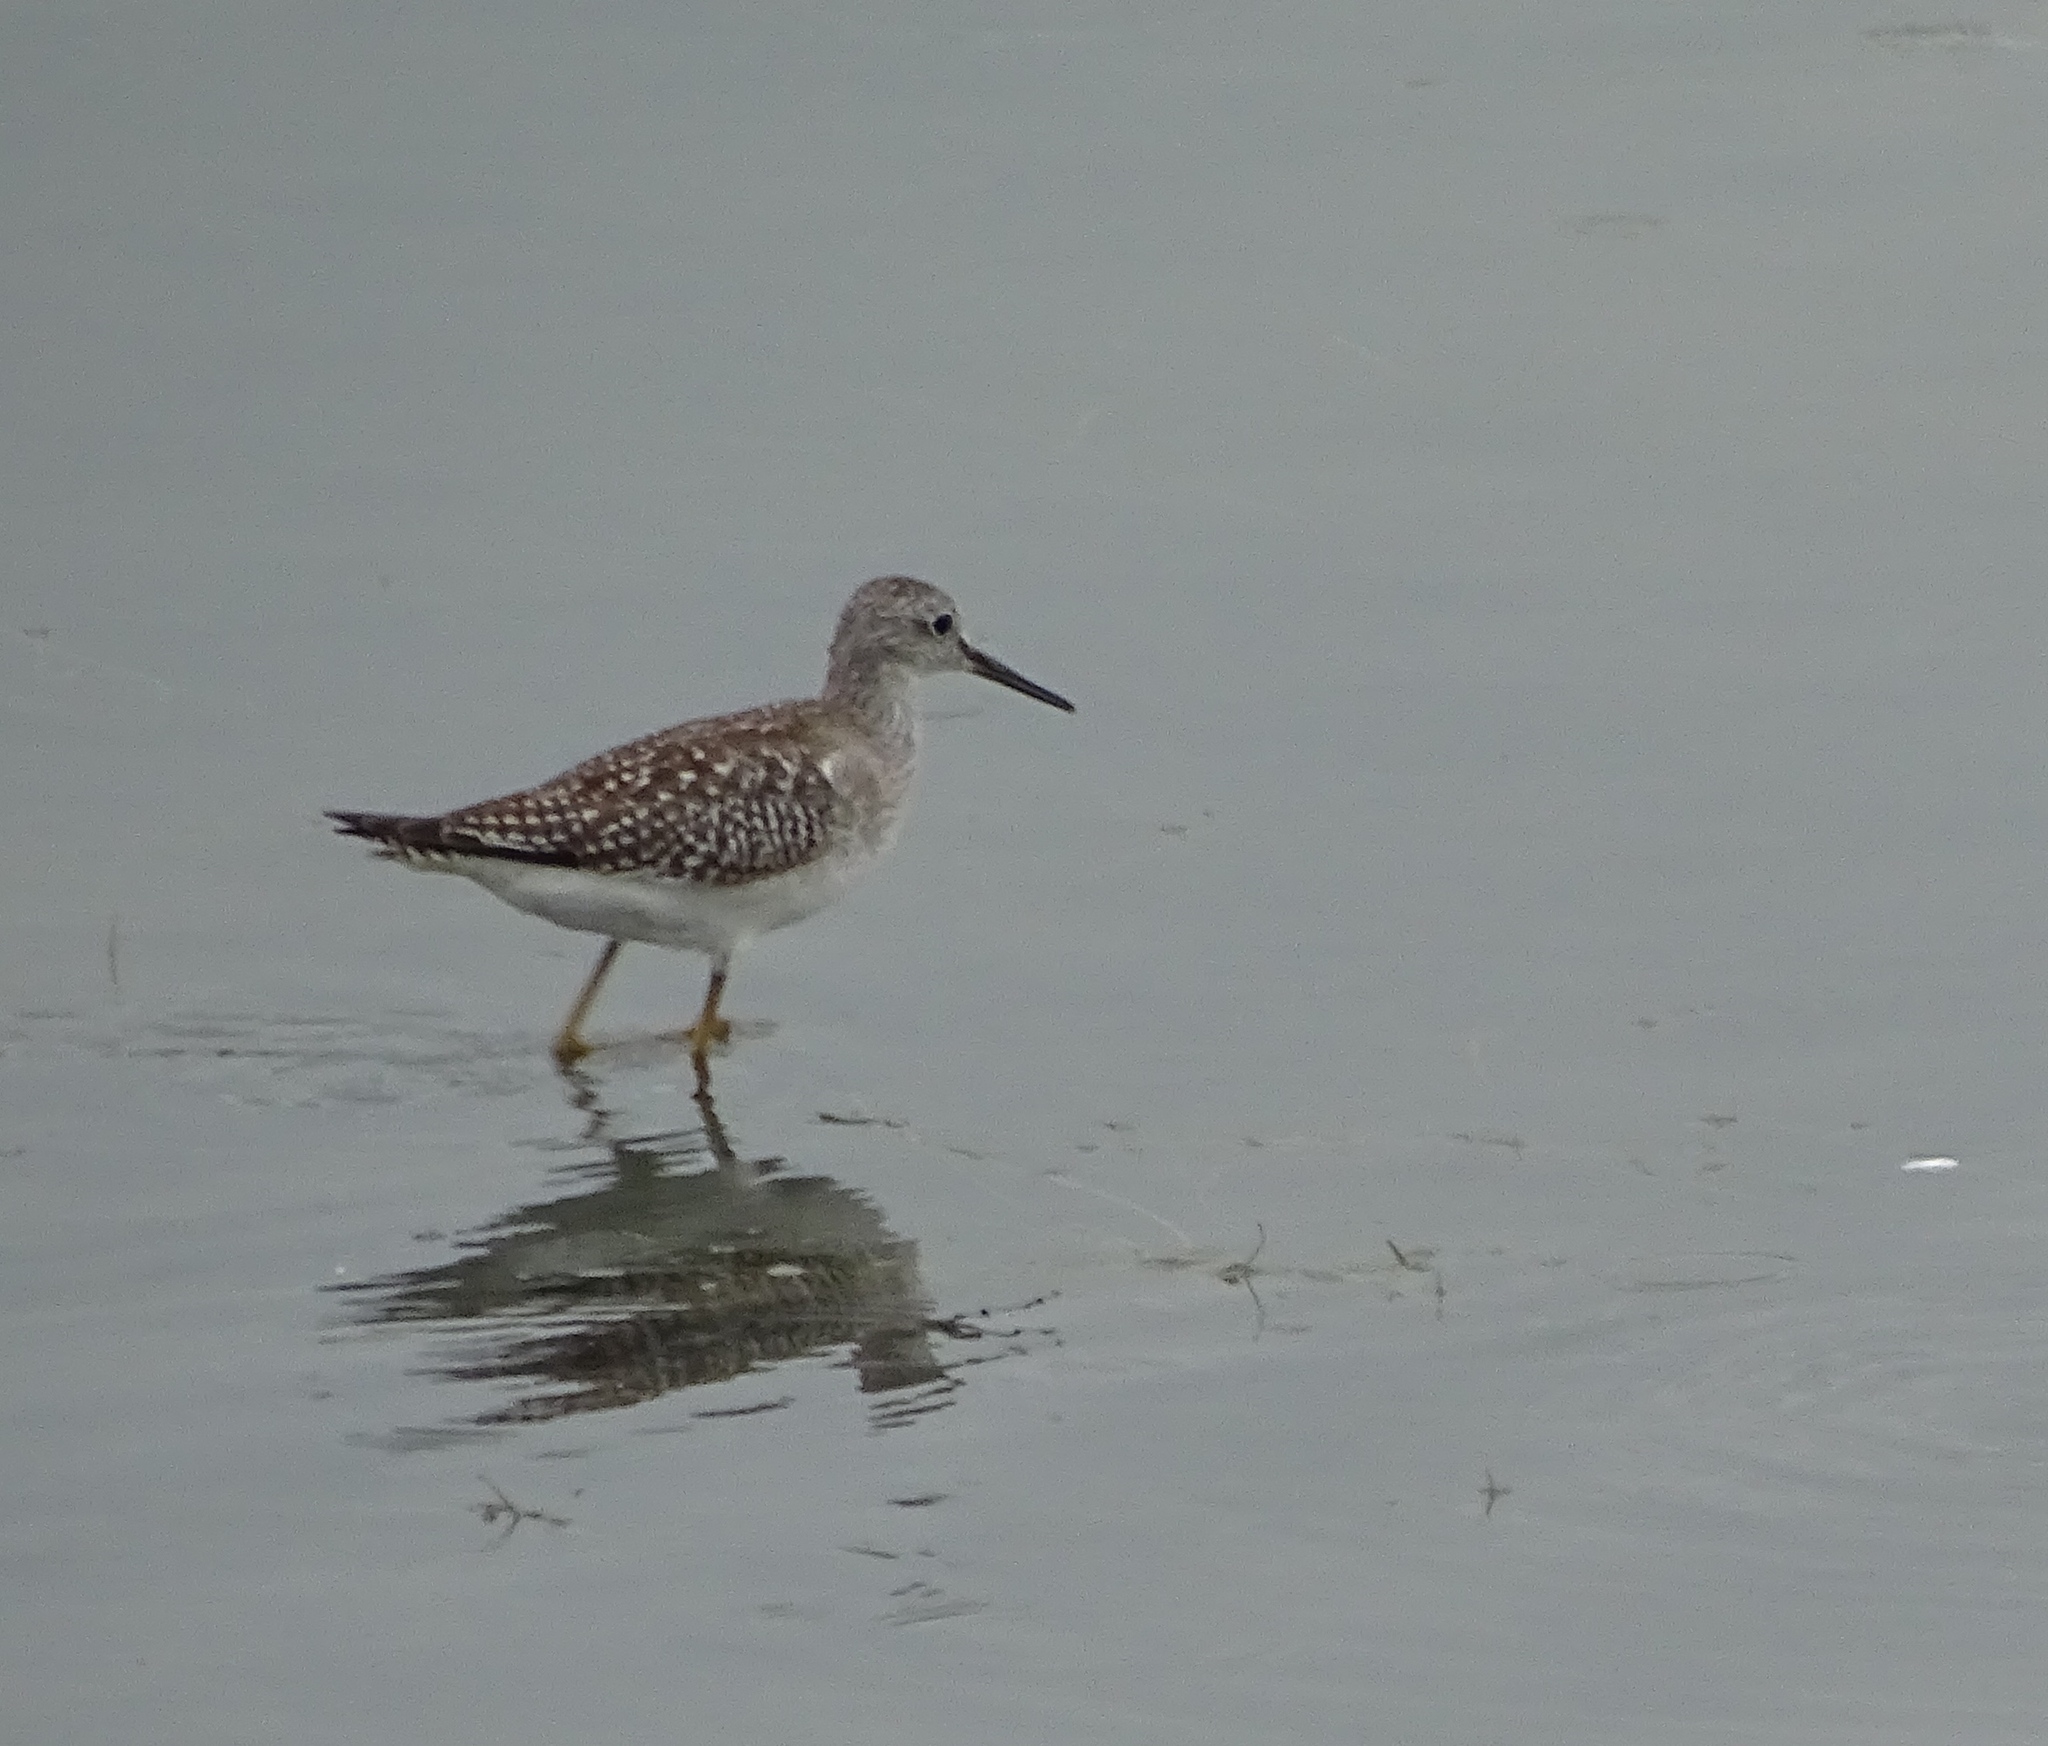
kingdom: Animalia
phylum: Chordata
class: Aves
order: Charadriiformes
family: Scolopacidae
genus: Tringa
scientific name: Tringa flavipes
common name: Lesser yellowlegs
